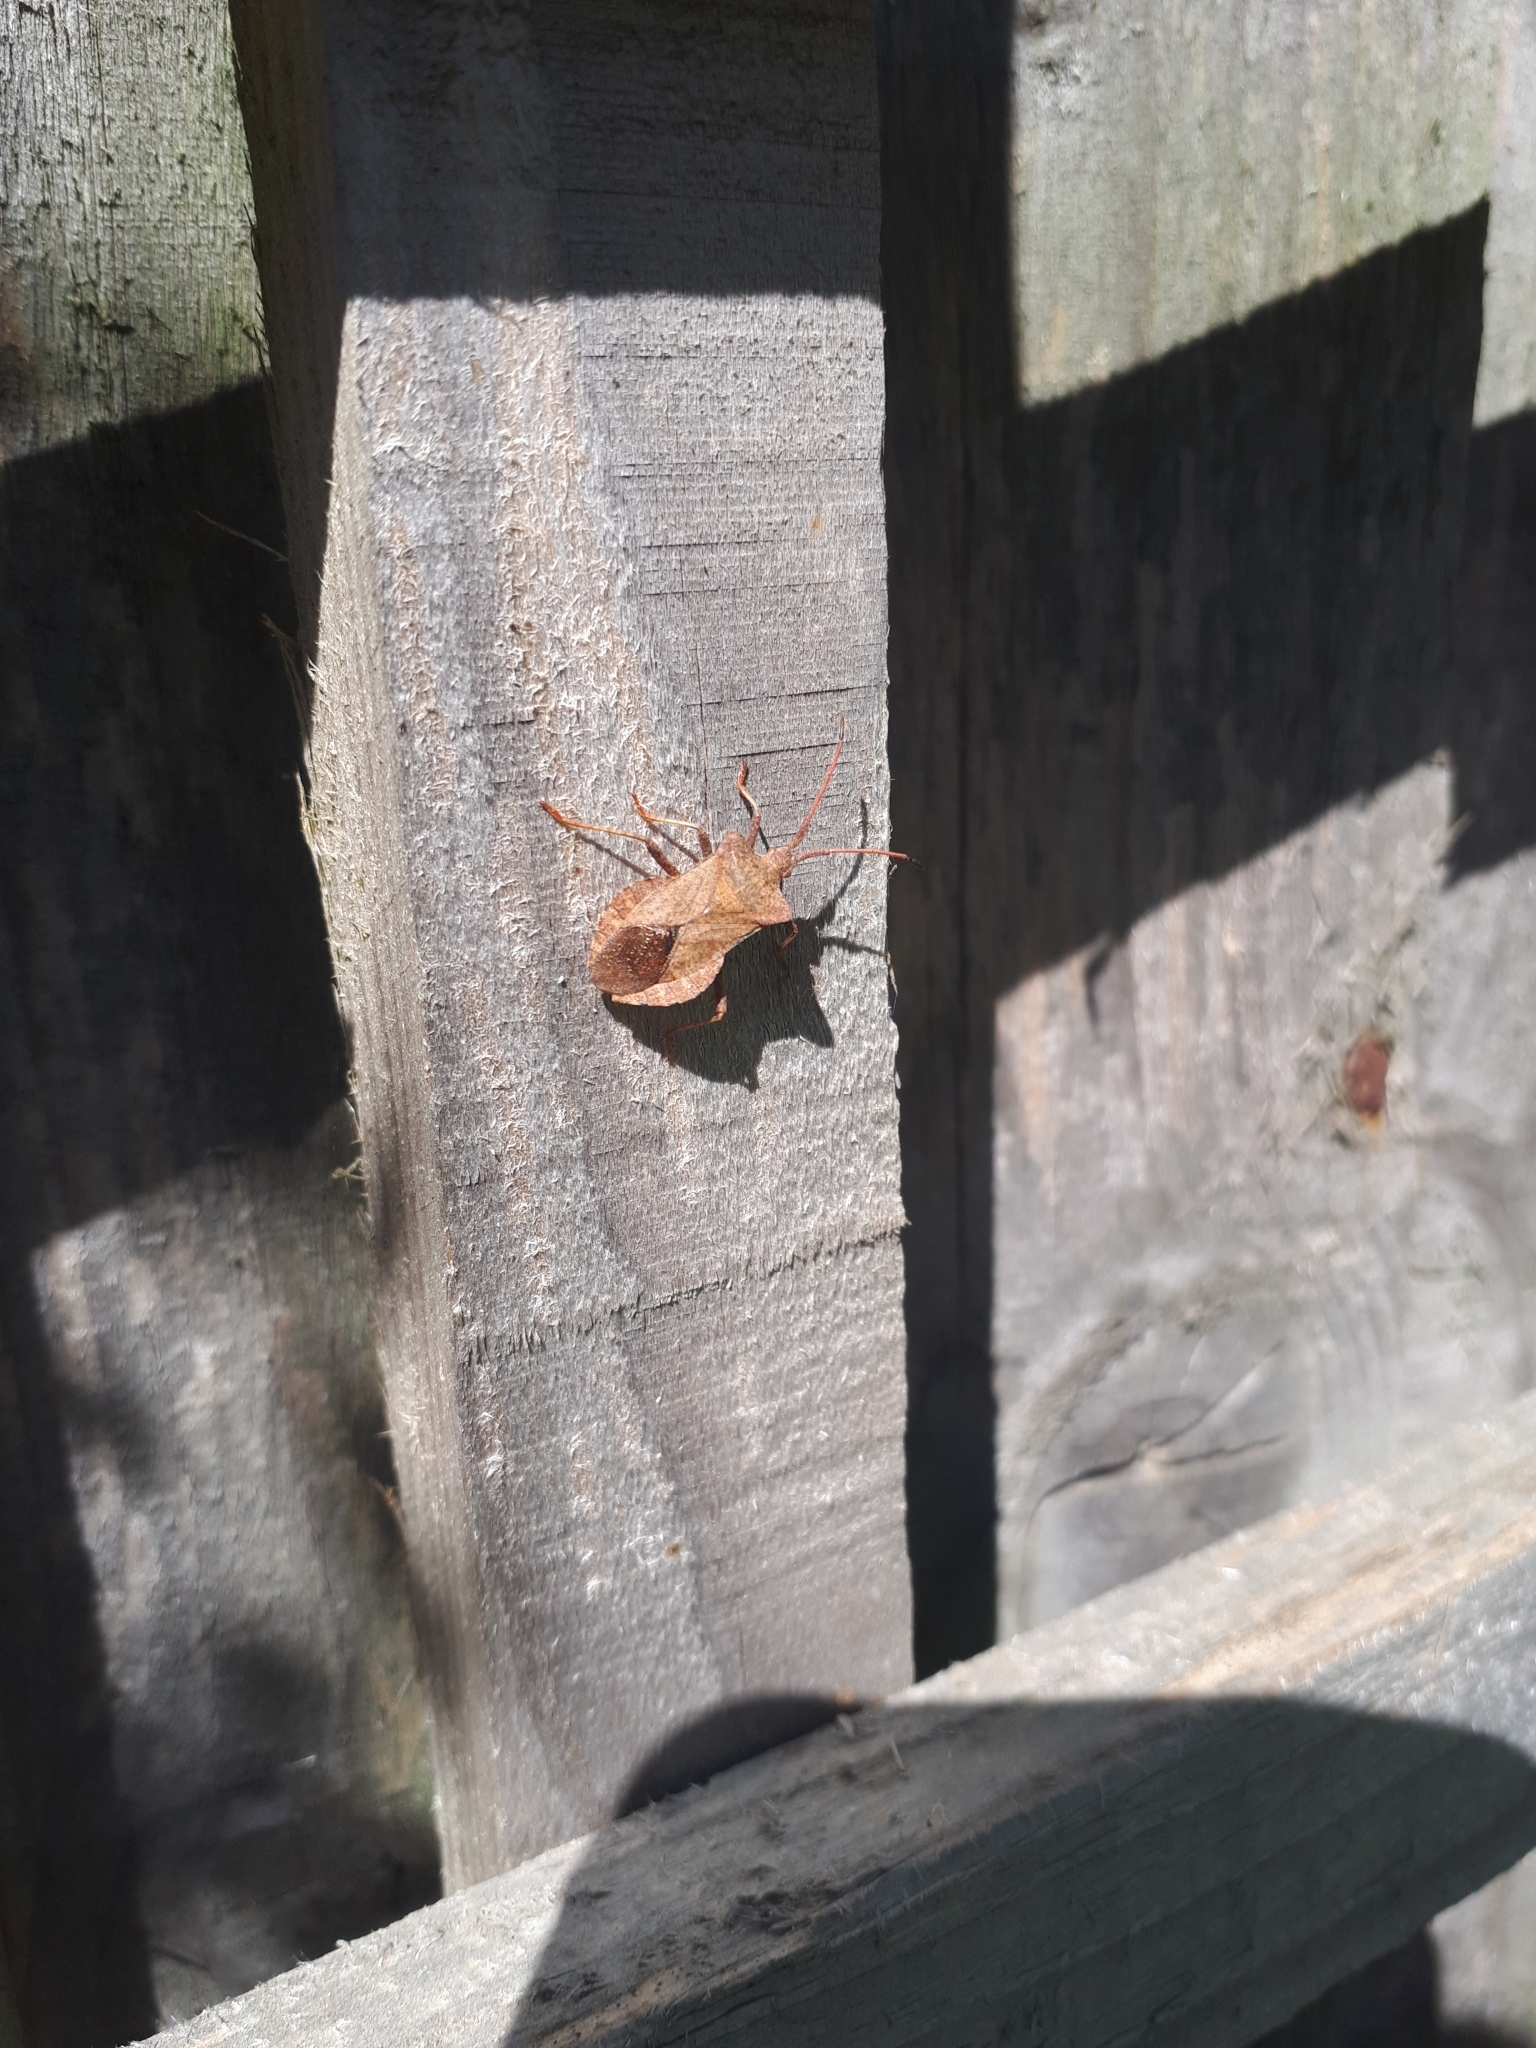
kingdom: Animalia
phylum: Arthropoda
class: Insecta
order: Hemiptera
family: Coreidae
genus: Coreus
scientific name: Coreus marginatus
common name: Dock bug
